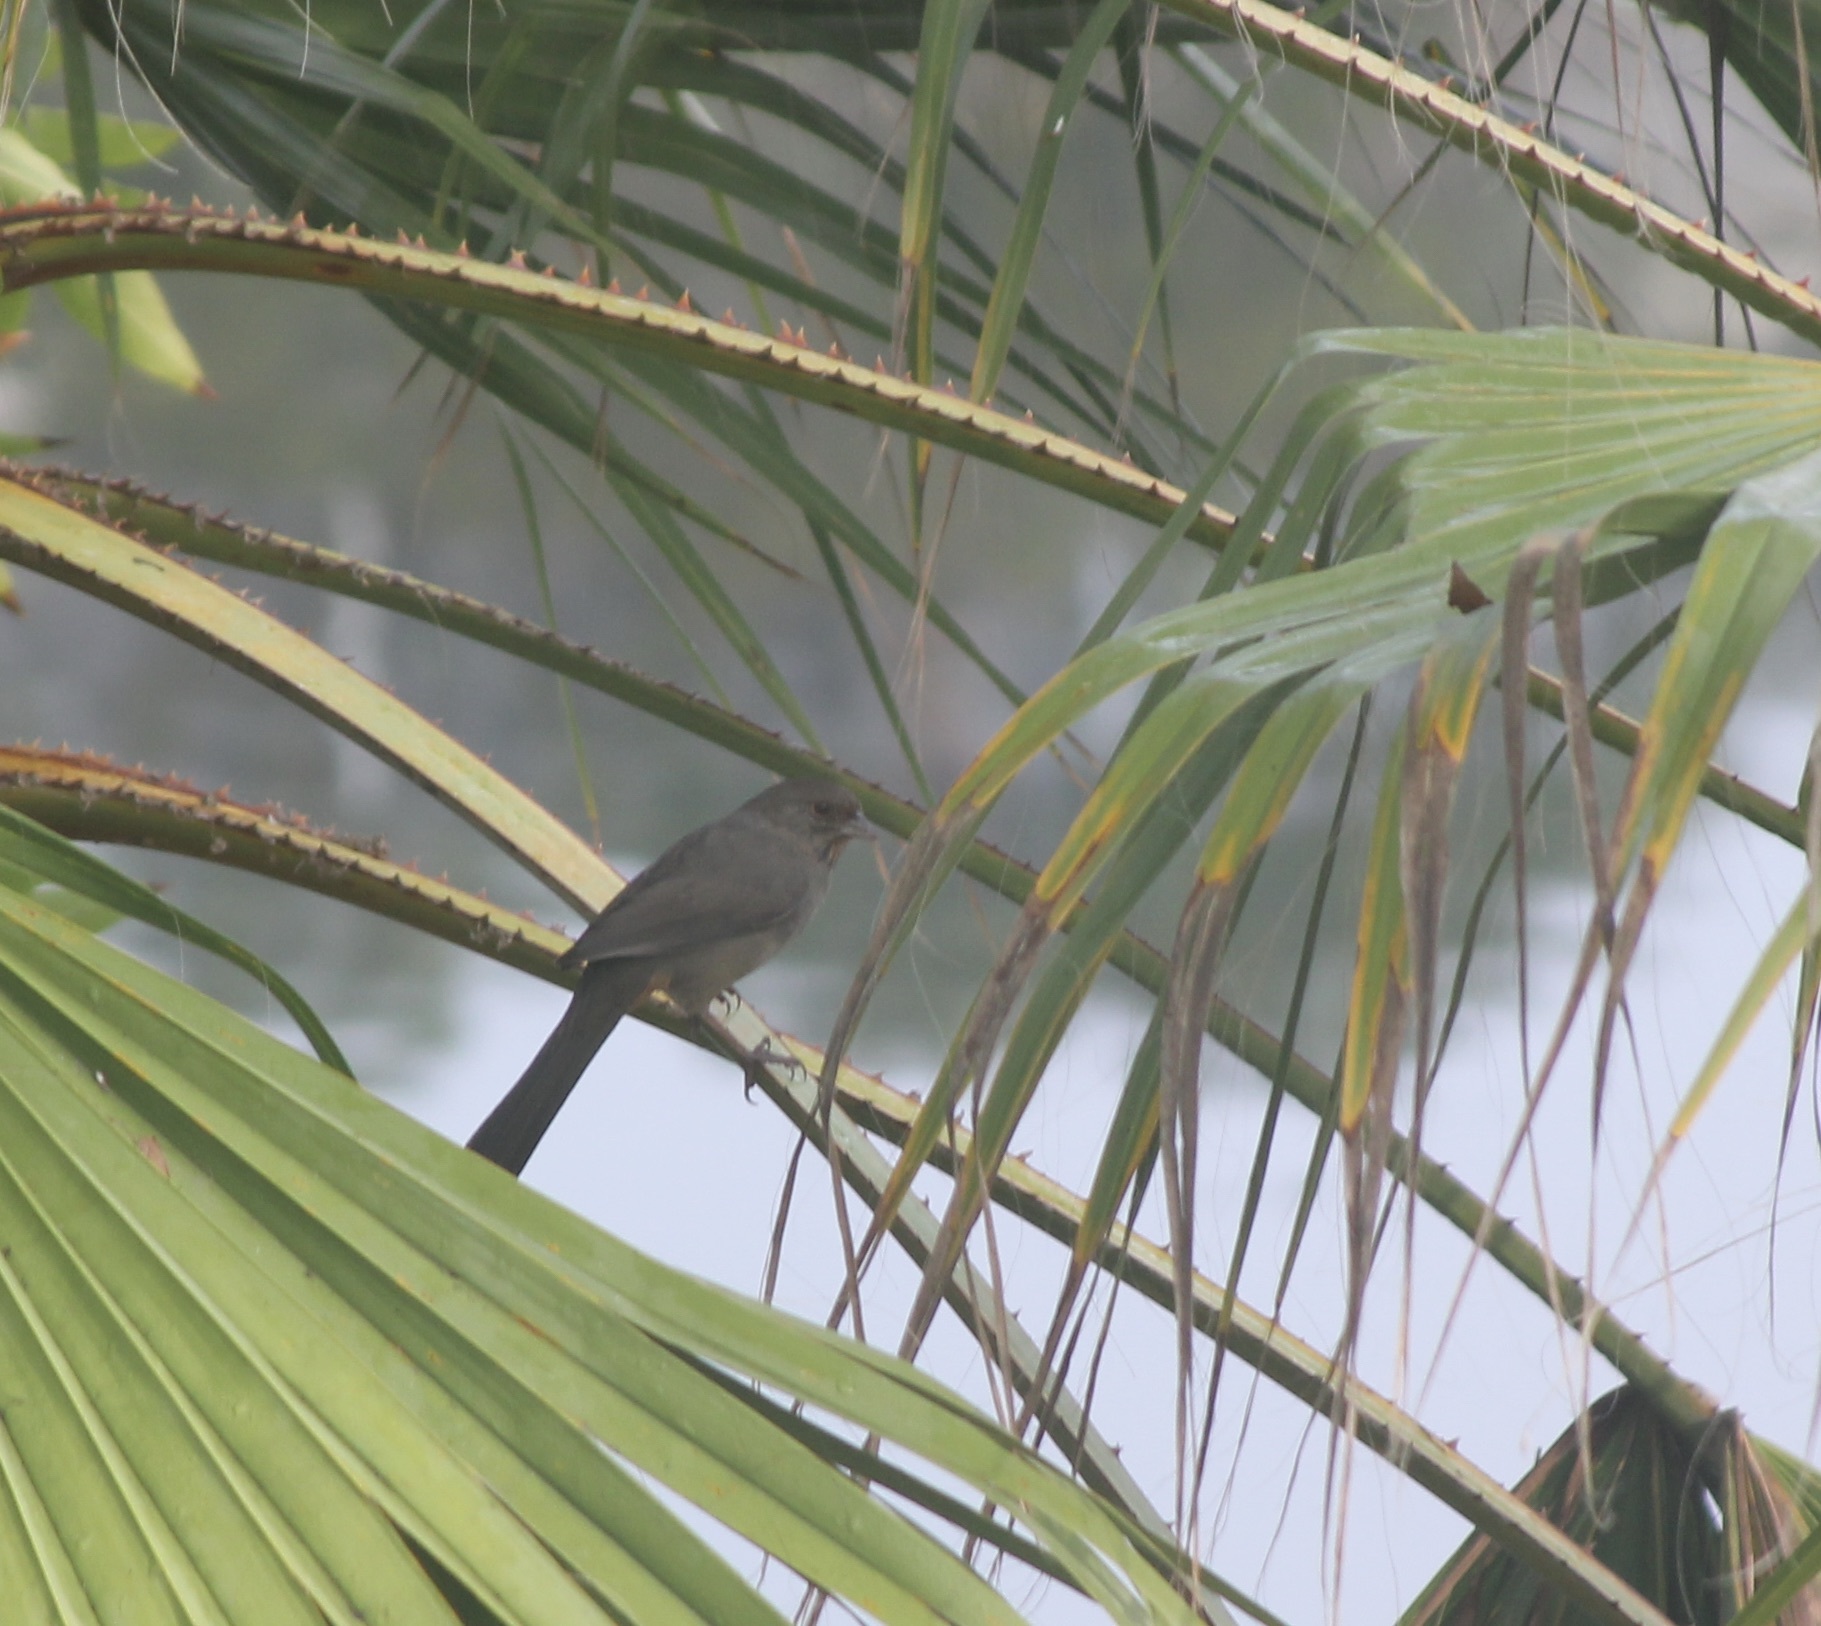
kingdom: Animalia
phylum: Chordata
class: Aves
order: Passeriformes
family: Passerellidae
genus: Melozone
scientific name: Melozone crissalis
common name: California towhee
